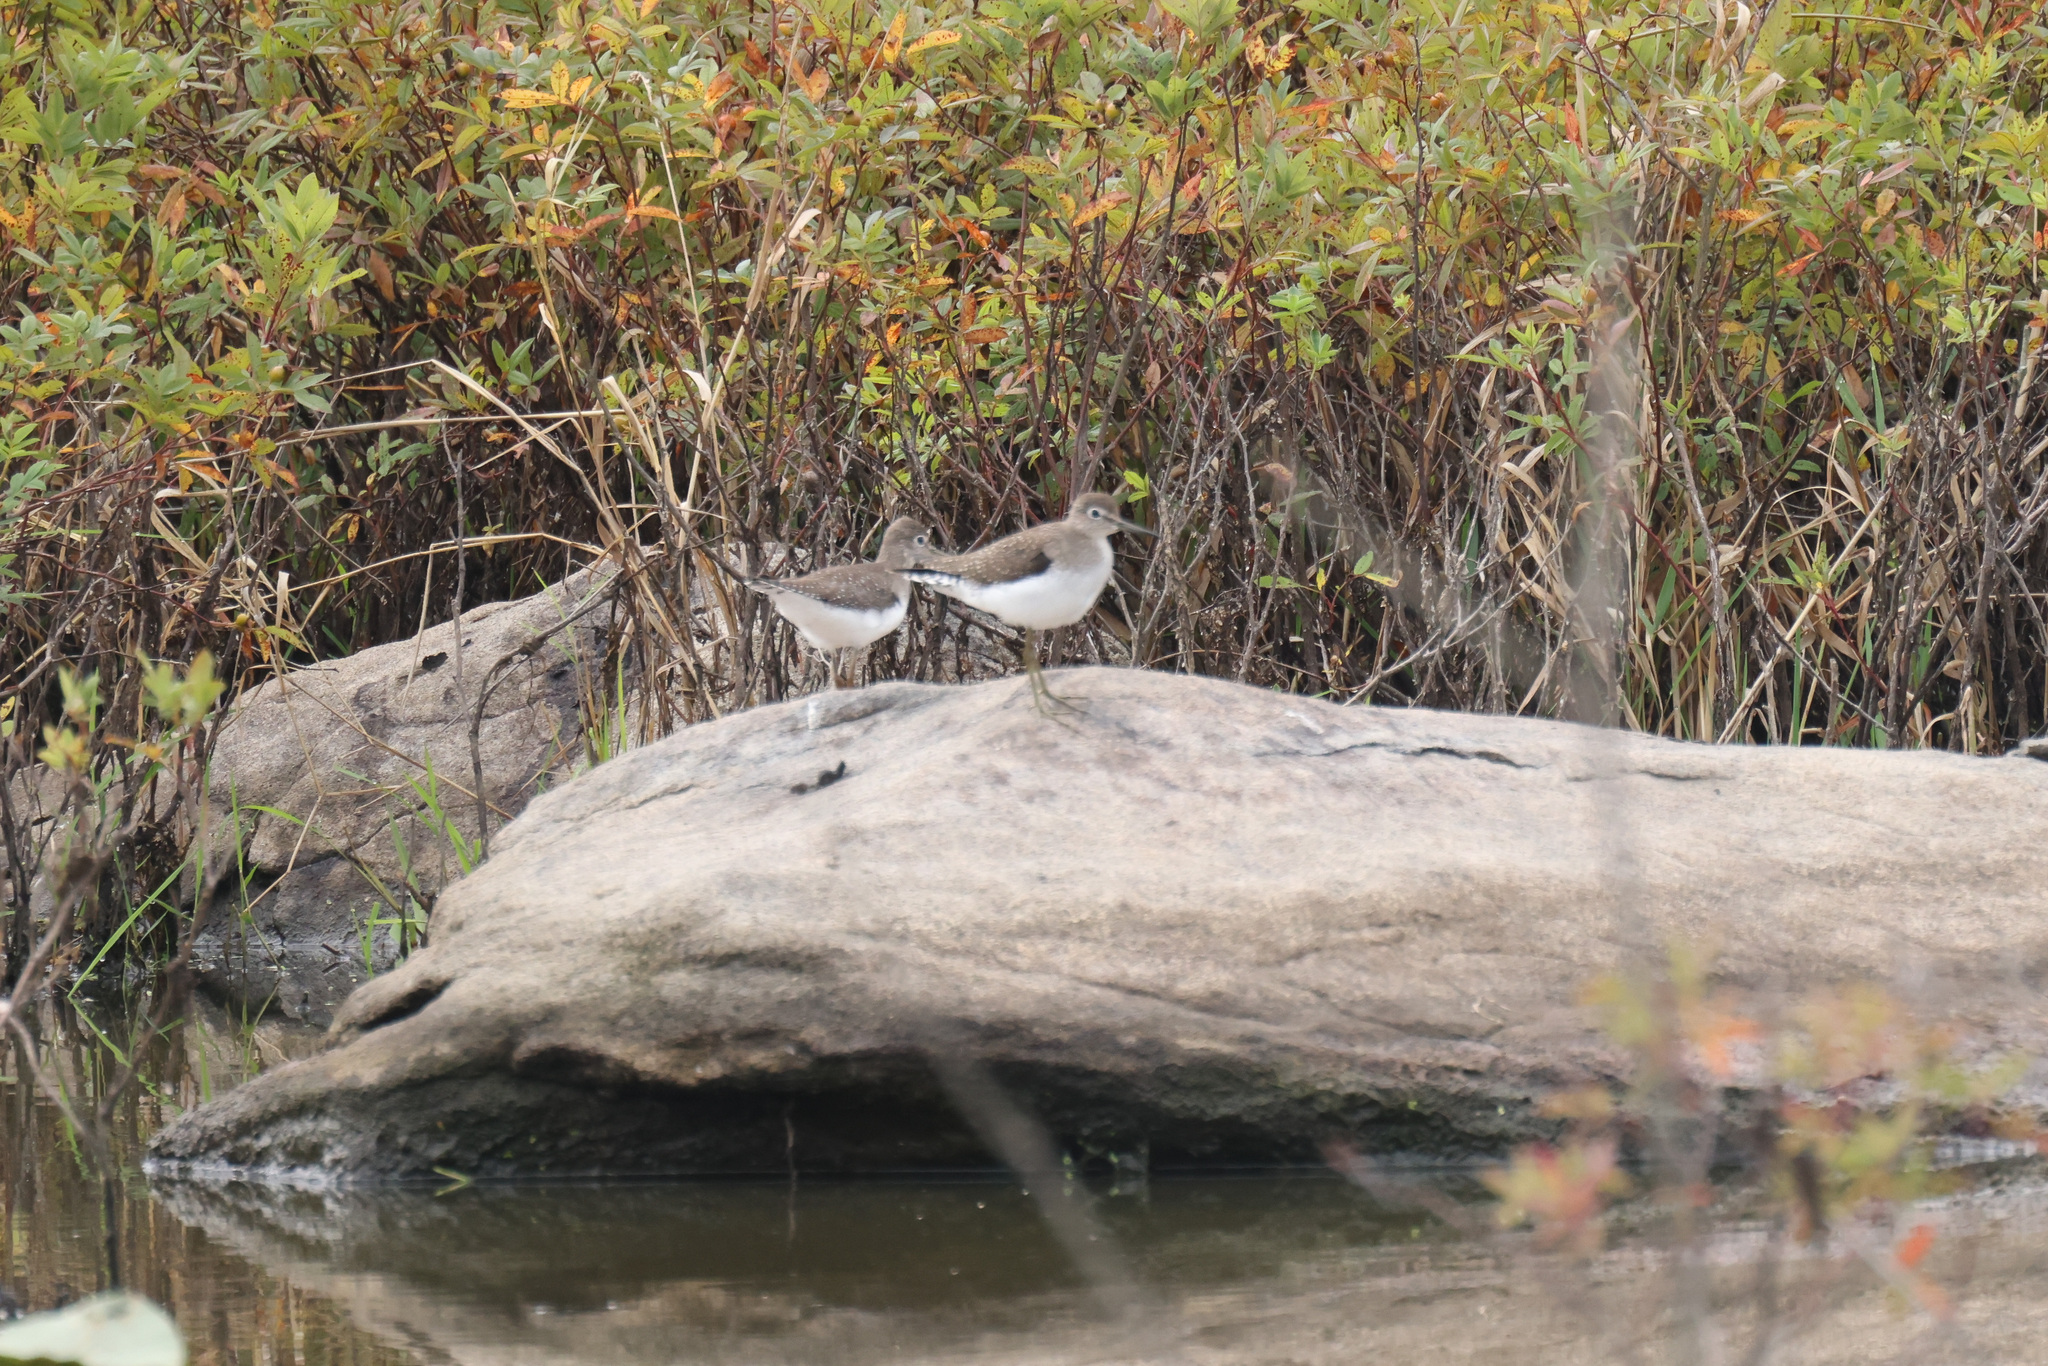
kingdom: Animalia
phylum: Chordata
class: Aves
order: Charadriiformes
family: Scolopacidae
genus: Tringa
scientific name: Tringa solitaria
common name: Solitary sandpiper
